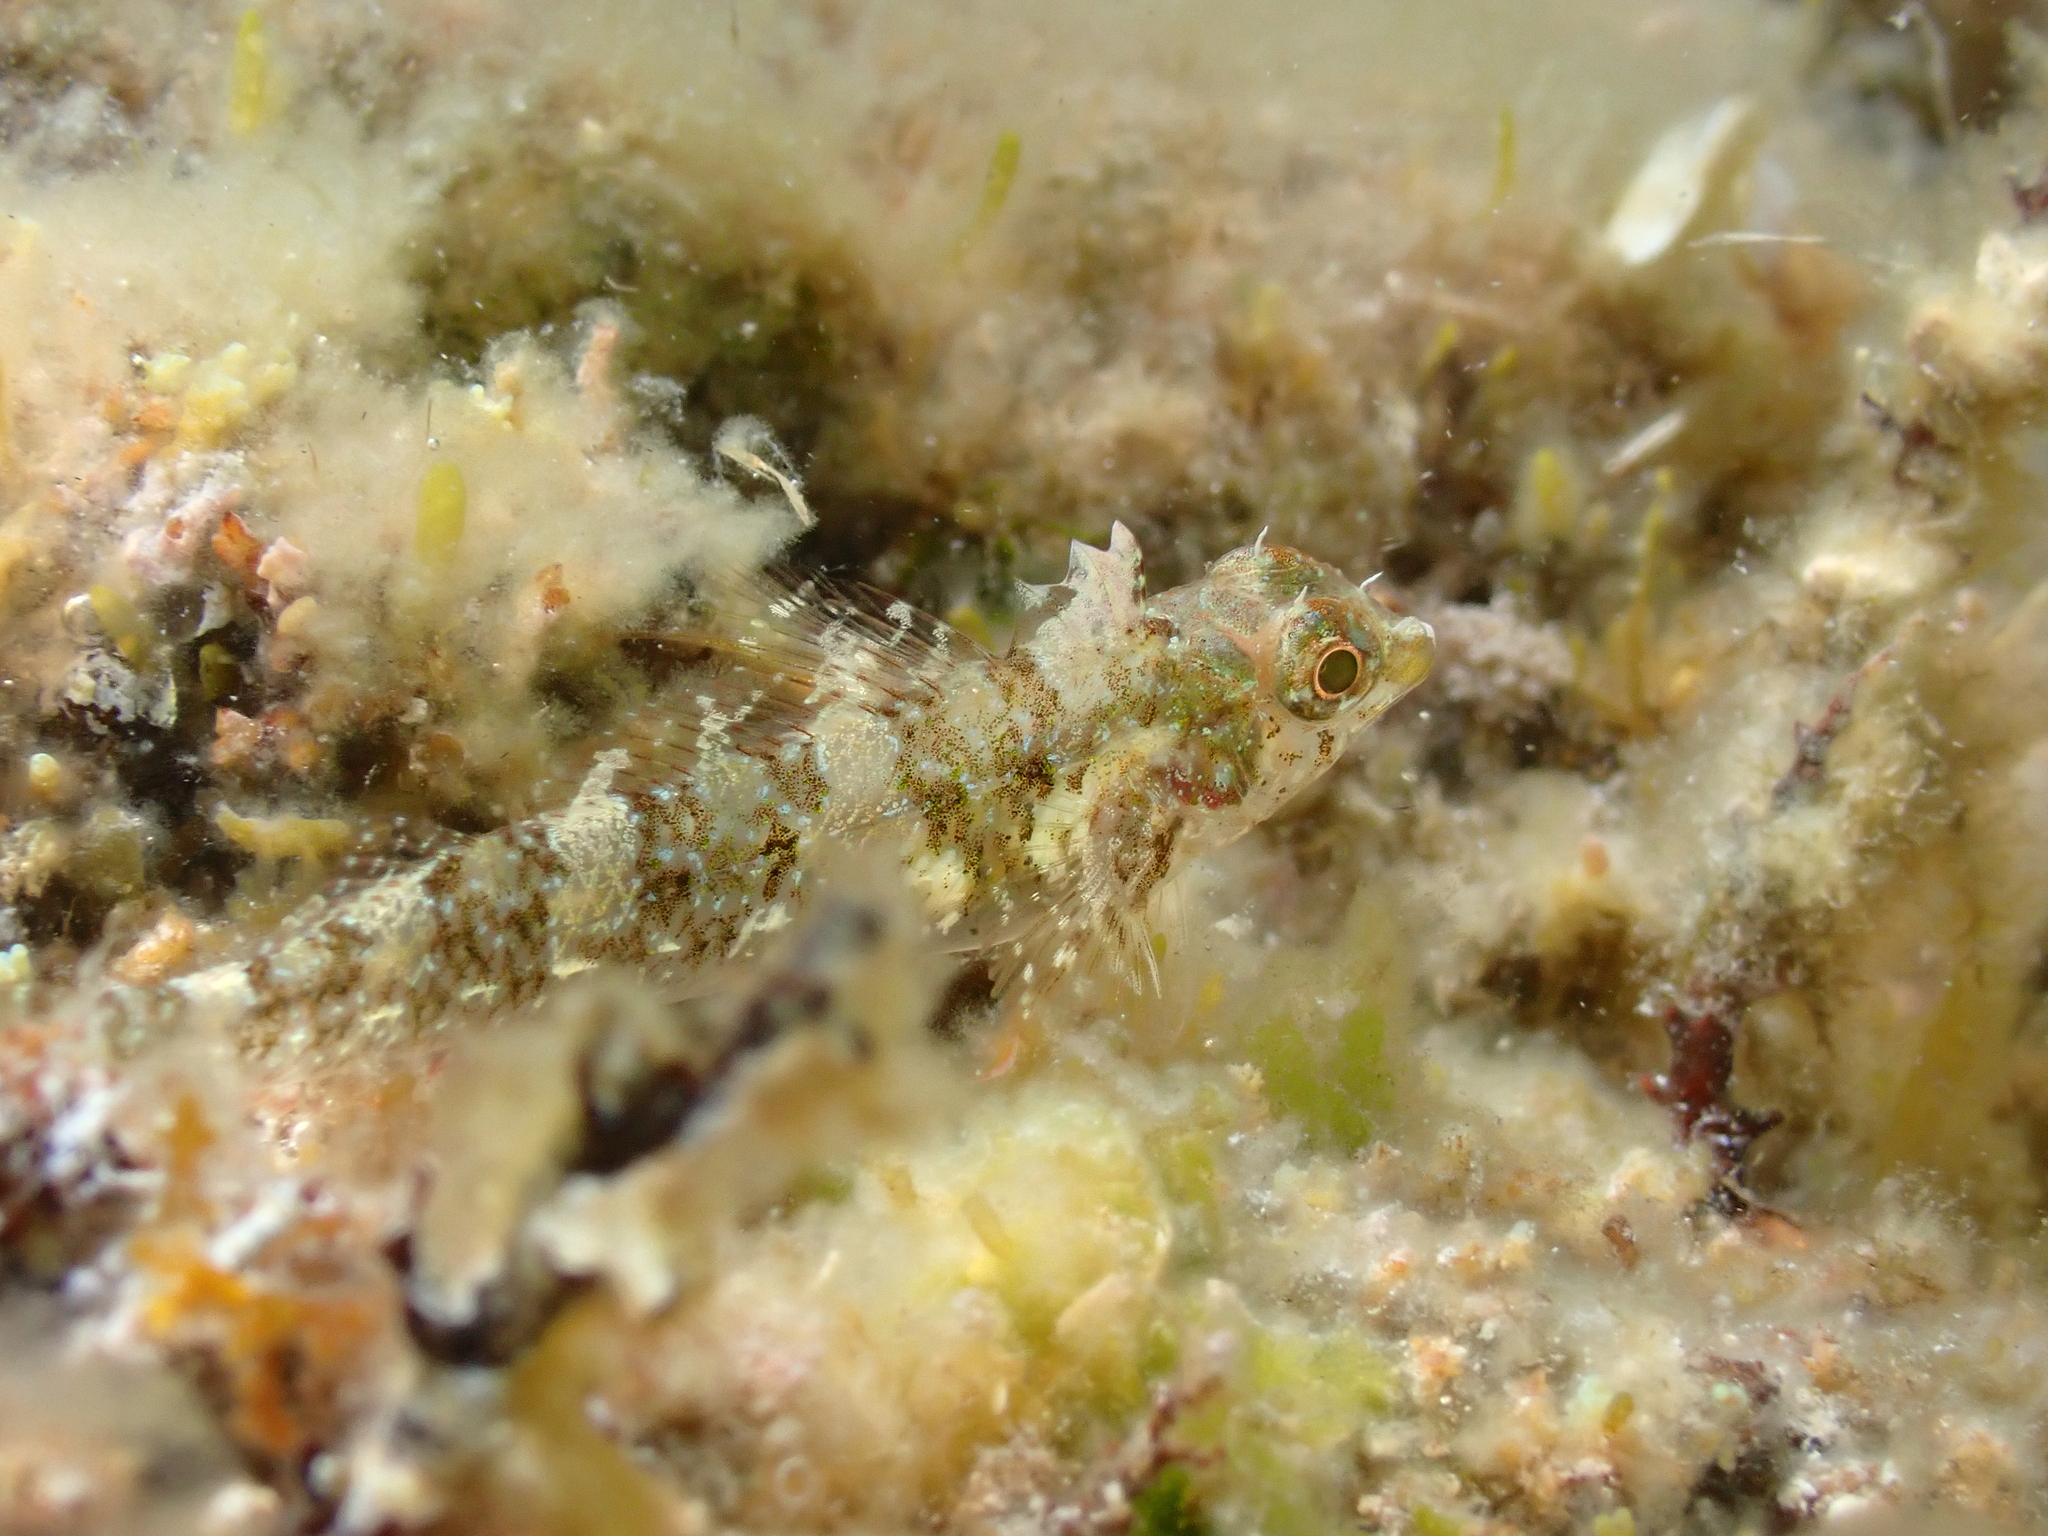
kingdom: Animalia
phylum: Chordata
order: Perciformes
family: Tripterygiidae
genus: Tripterygion
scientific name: Tripterygion tripteronotum
